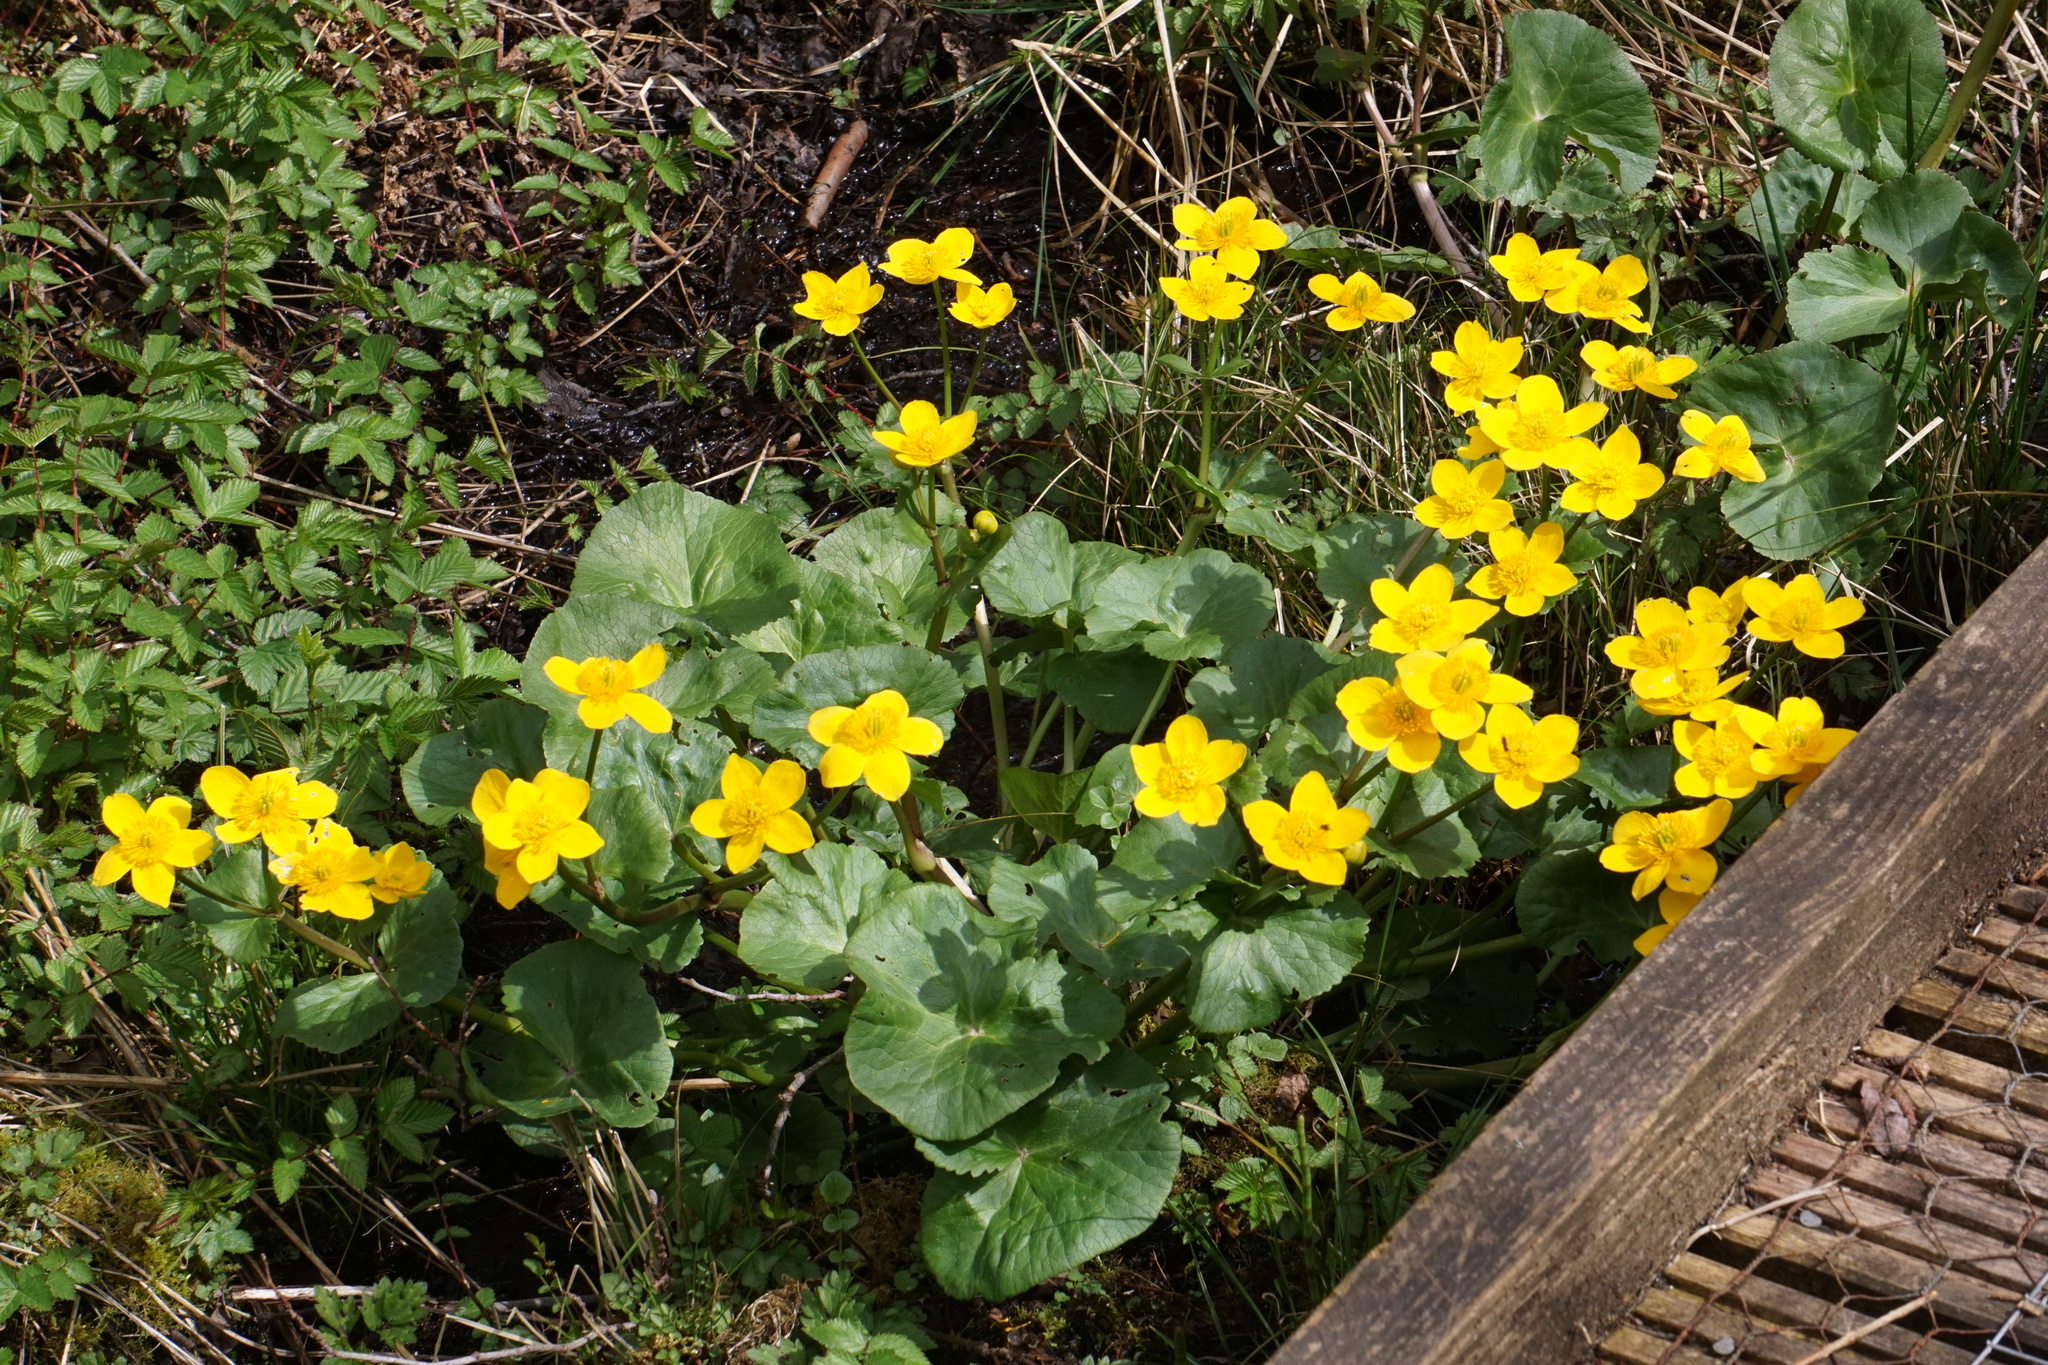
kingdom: Plantae
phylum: Tracheophyta
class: Magnoliopsida
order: Ranunculales
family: Ranunculaceae
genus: Caltha
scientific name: Caltha palustris
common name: Marsh marigold
